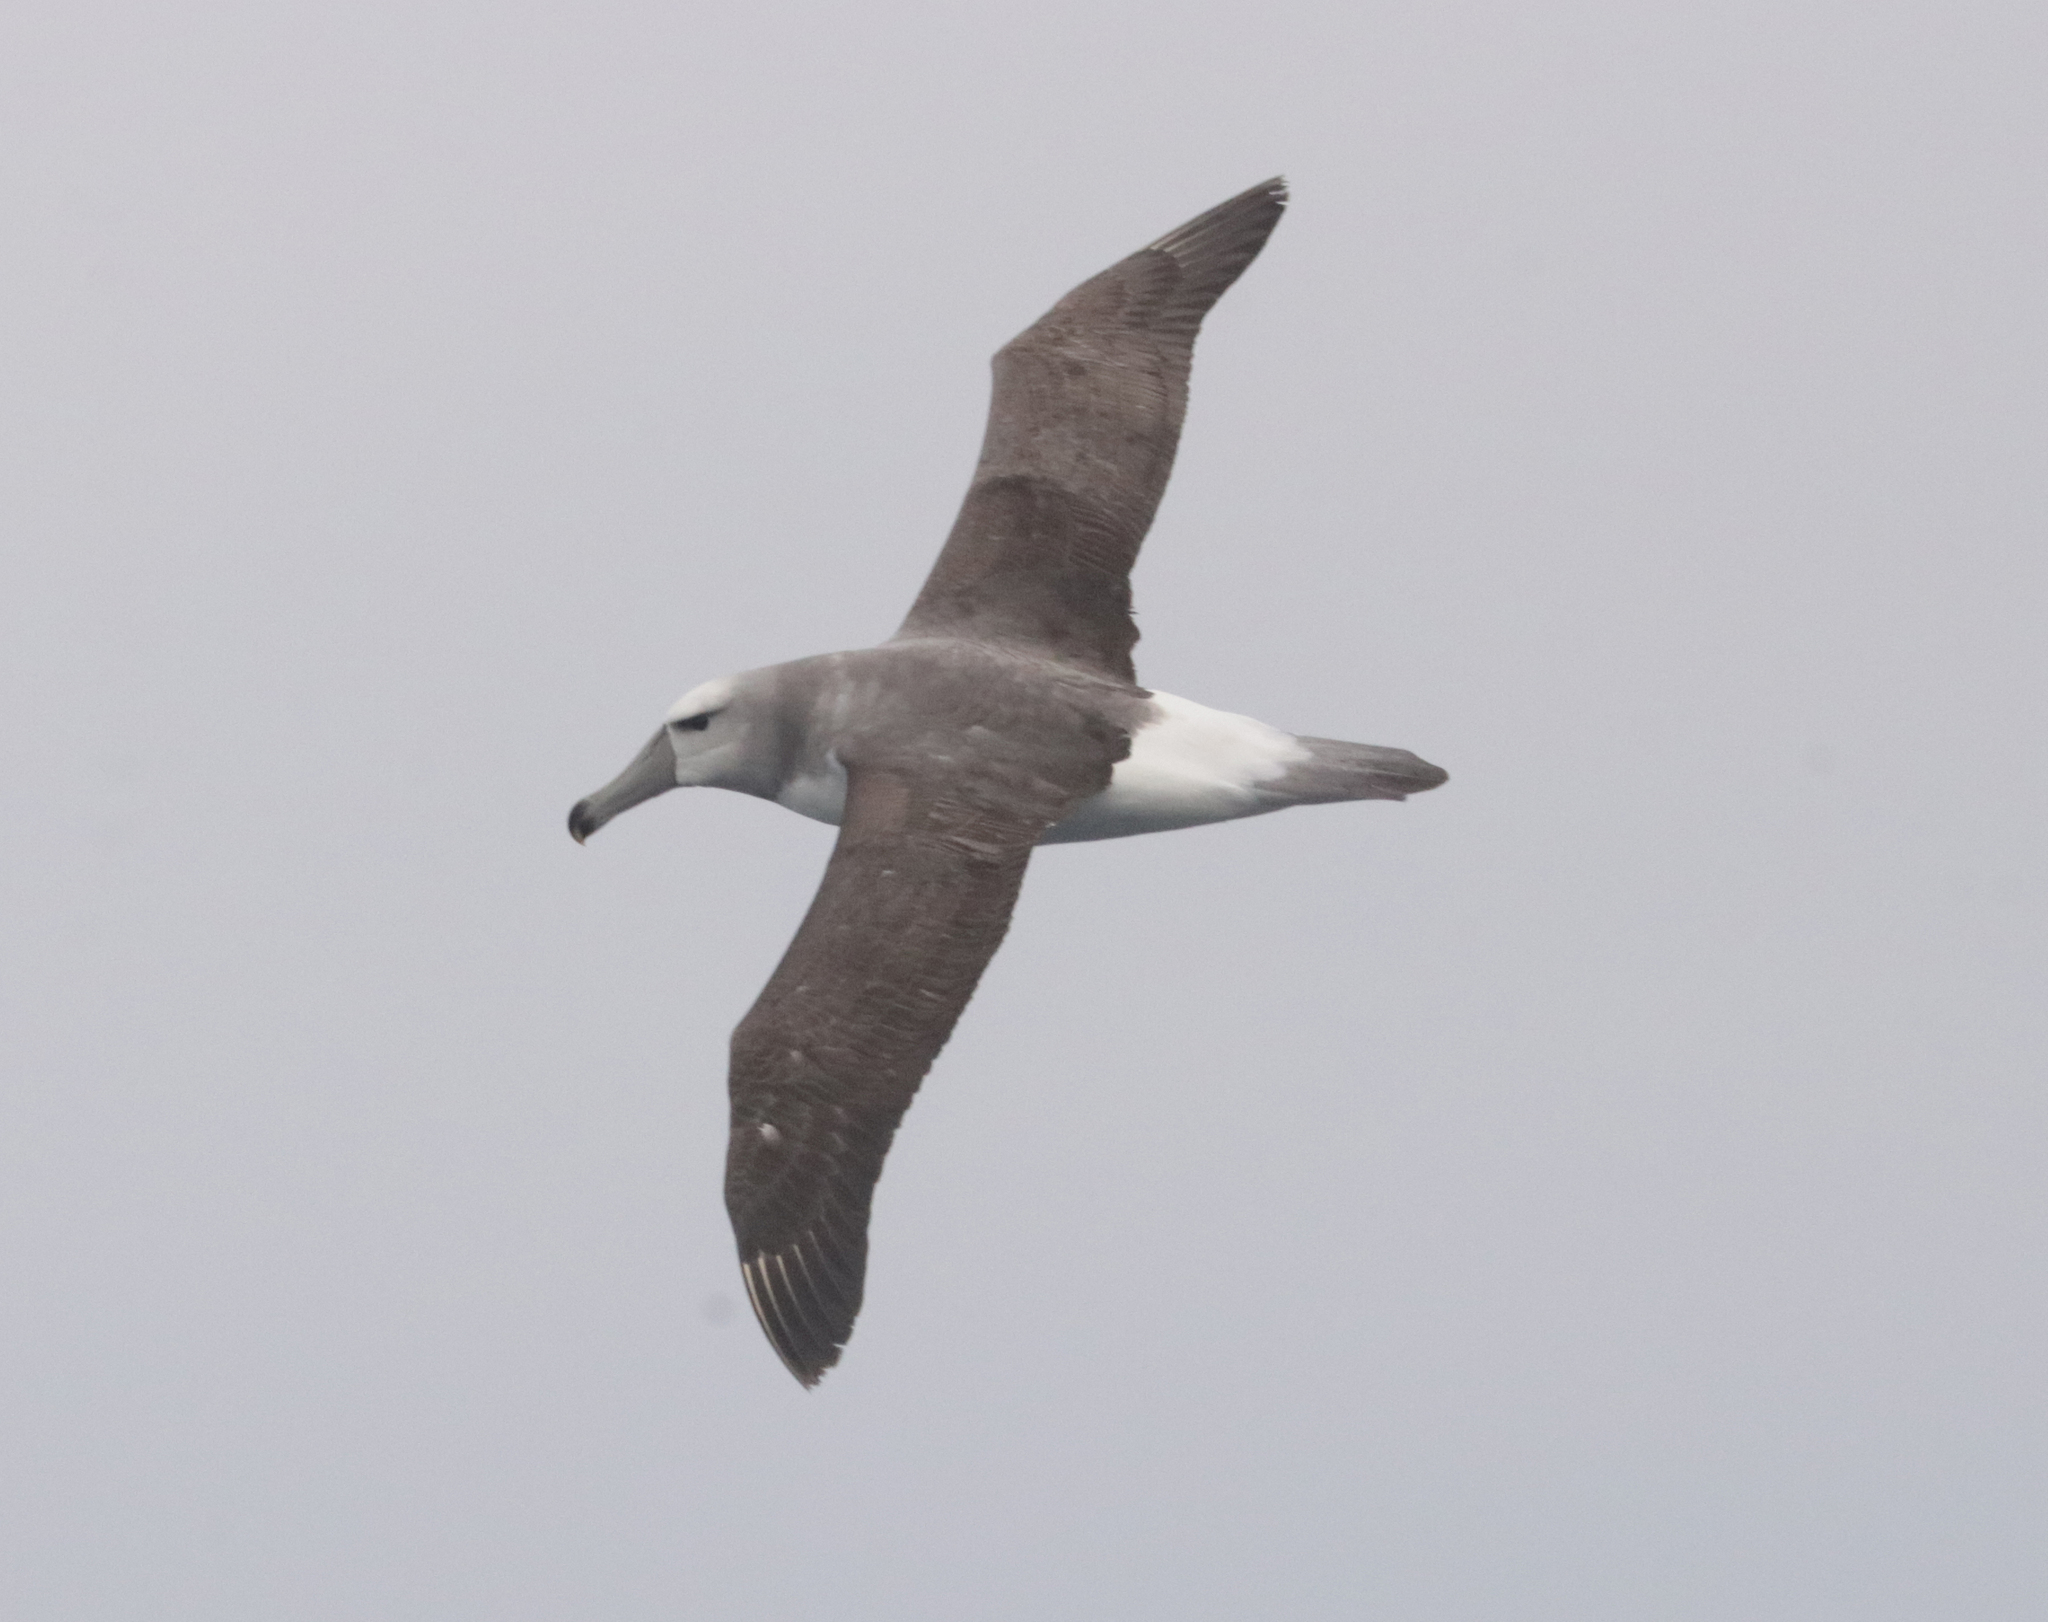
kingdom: Animalia
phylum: Chordata
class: Aves
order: Procellariiformes
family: Diomedeidae
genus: Thalassarche
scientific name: Thalassarche cauta
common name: Shy albatross
